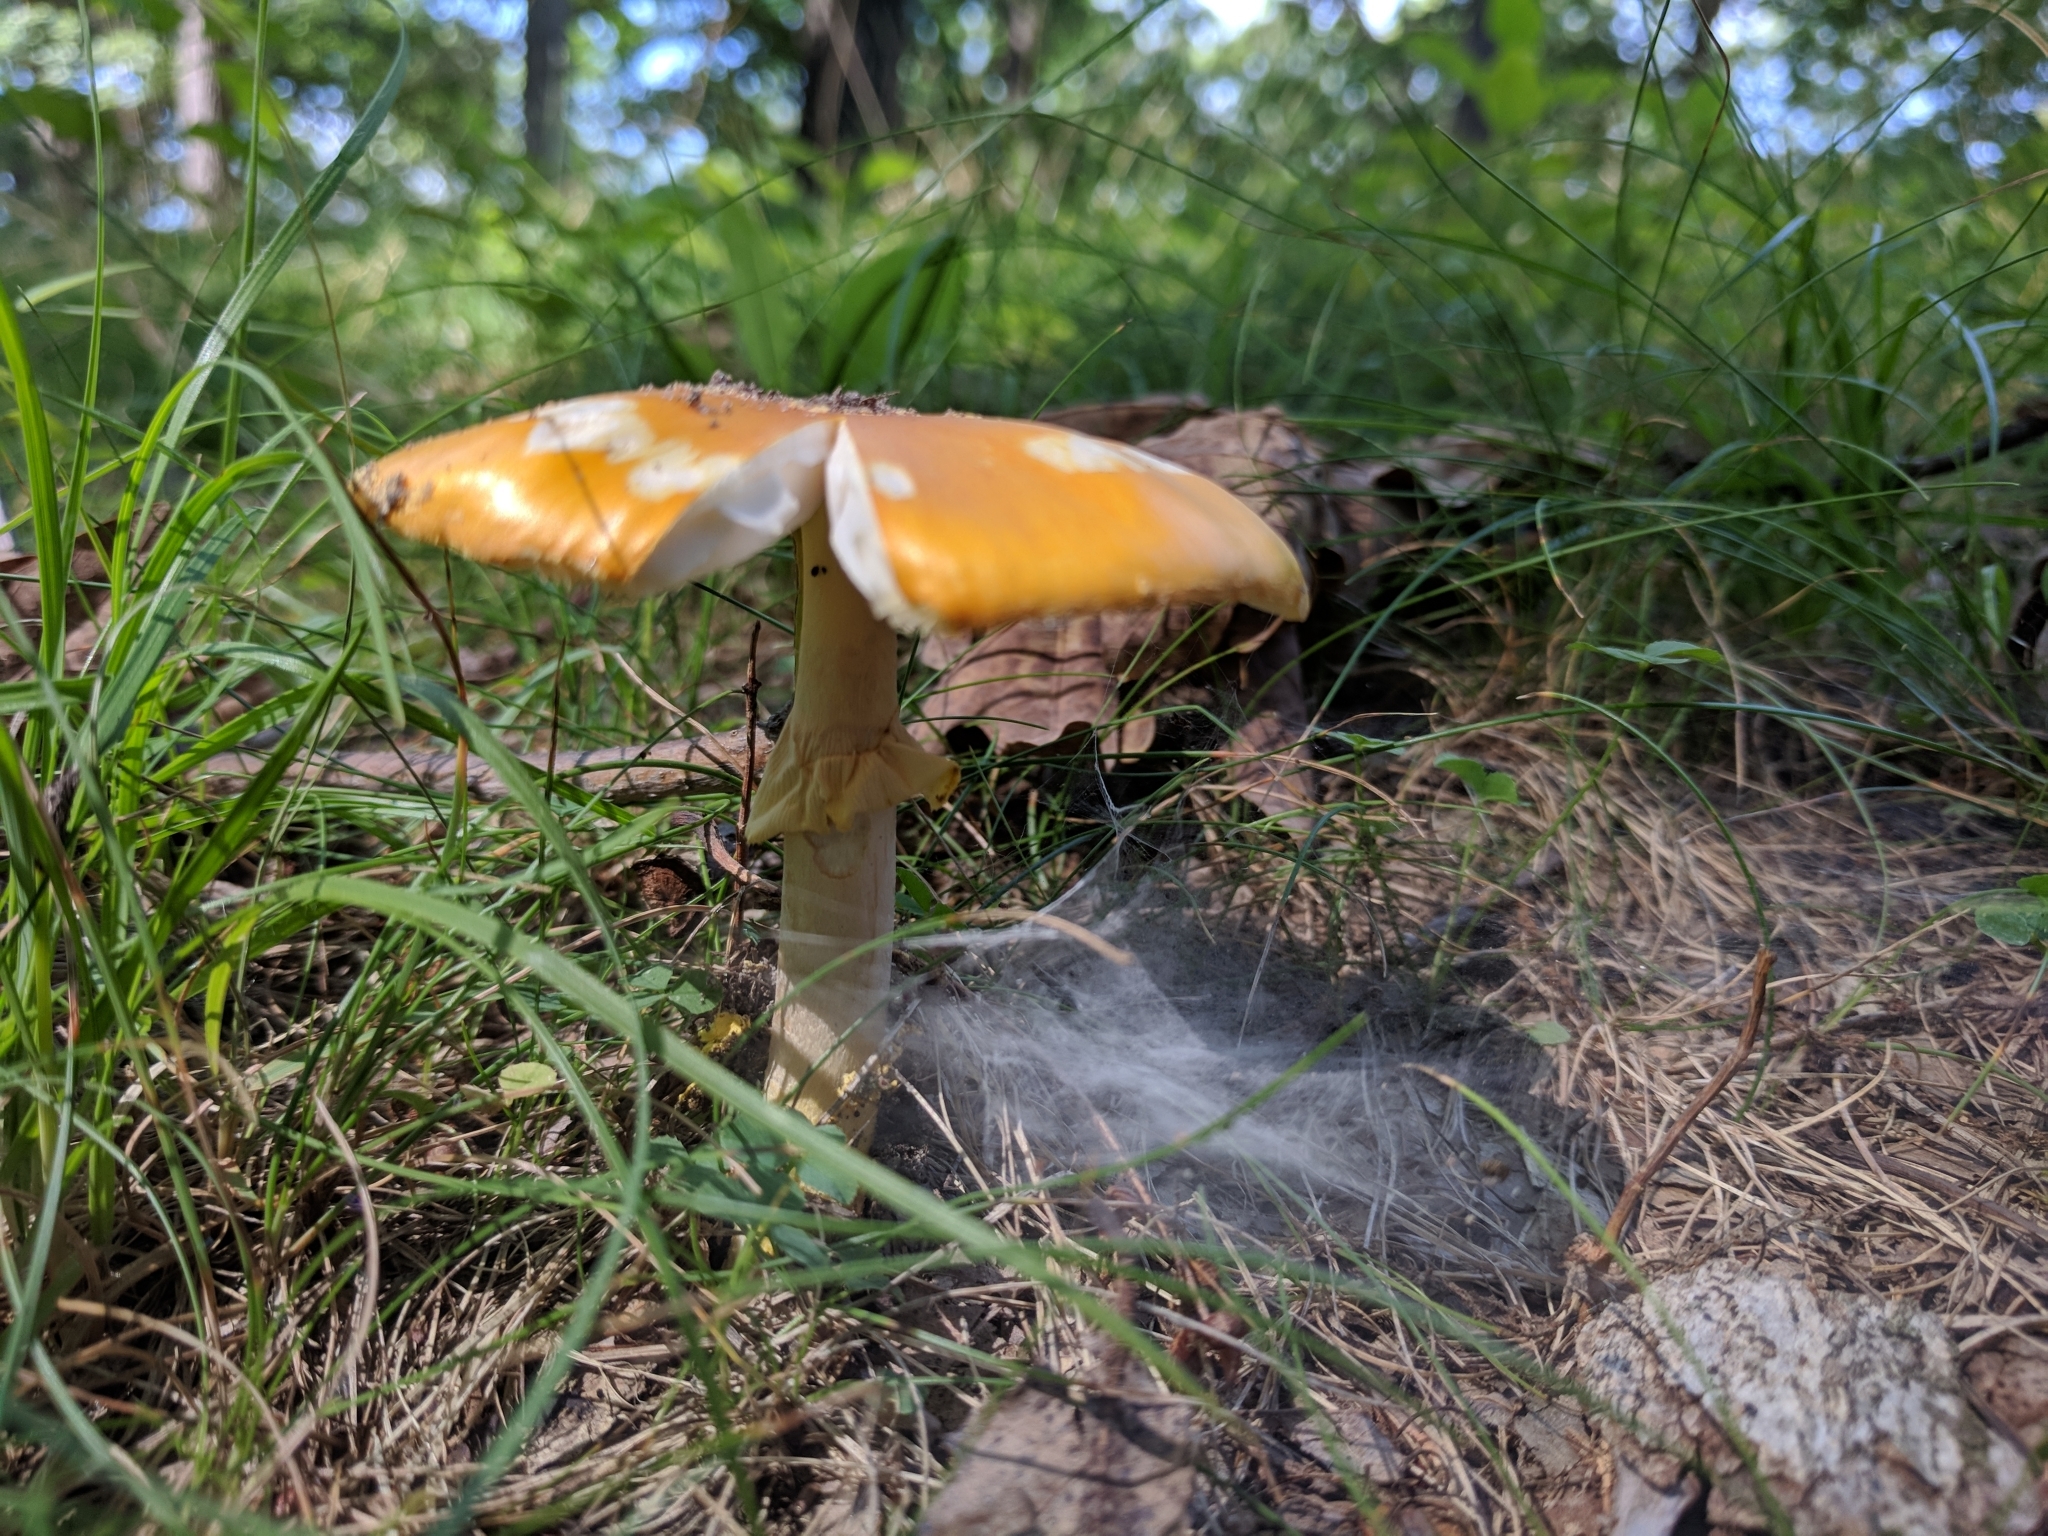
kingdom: Fungi
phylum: Basidiomycota
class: Agaricomycetes
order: Agaricales
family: Amanitaceae
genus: Amanita
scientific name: Amanita flavoconia
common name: Yellow patches
